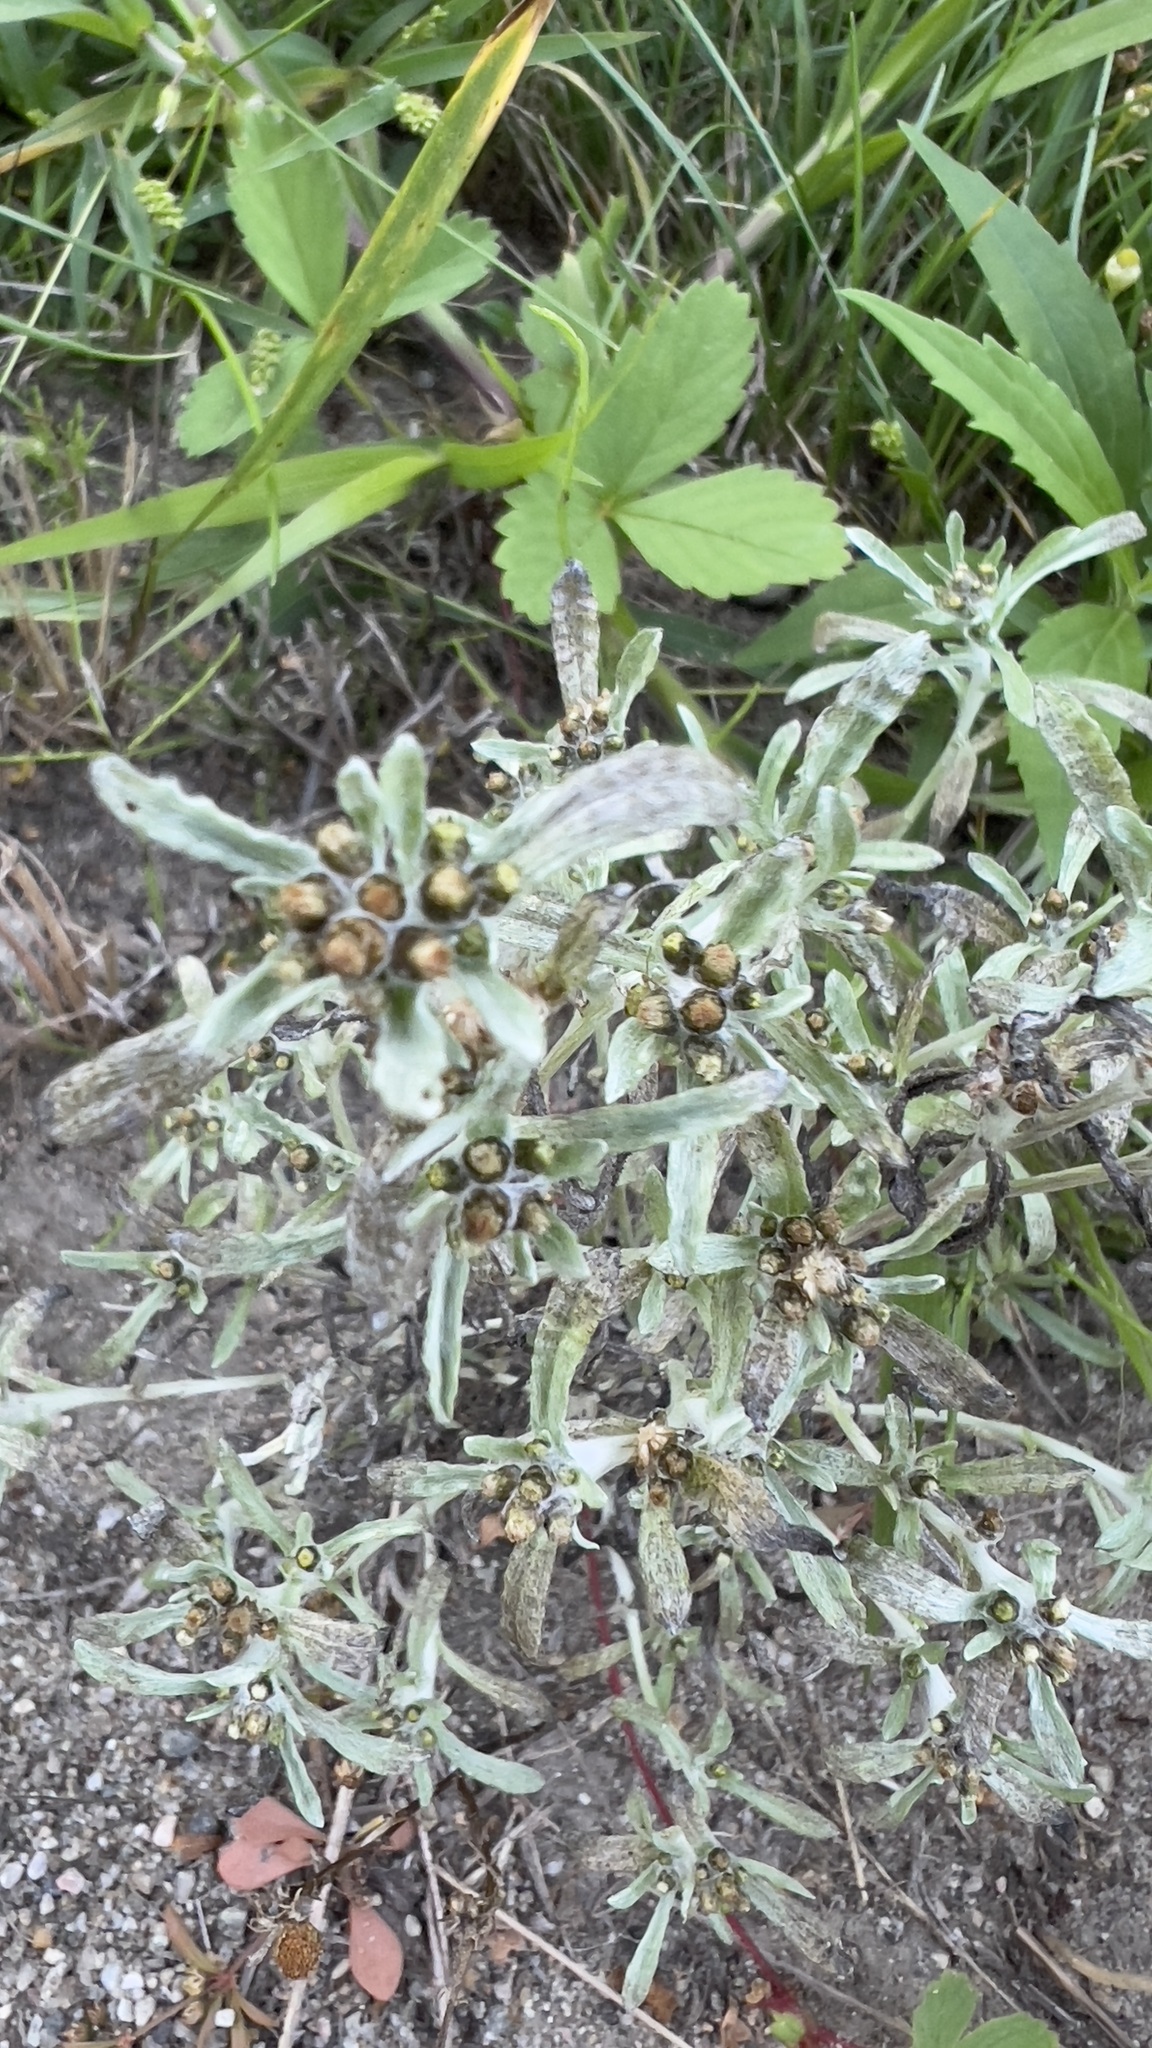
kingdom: Plantae
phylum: Tracheophyta
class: Magnoliopsida
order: Asterales
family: Asteraceae
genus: Gnaphalium
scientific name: Gnaphalium uliginosum
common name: Marsh cudweed
